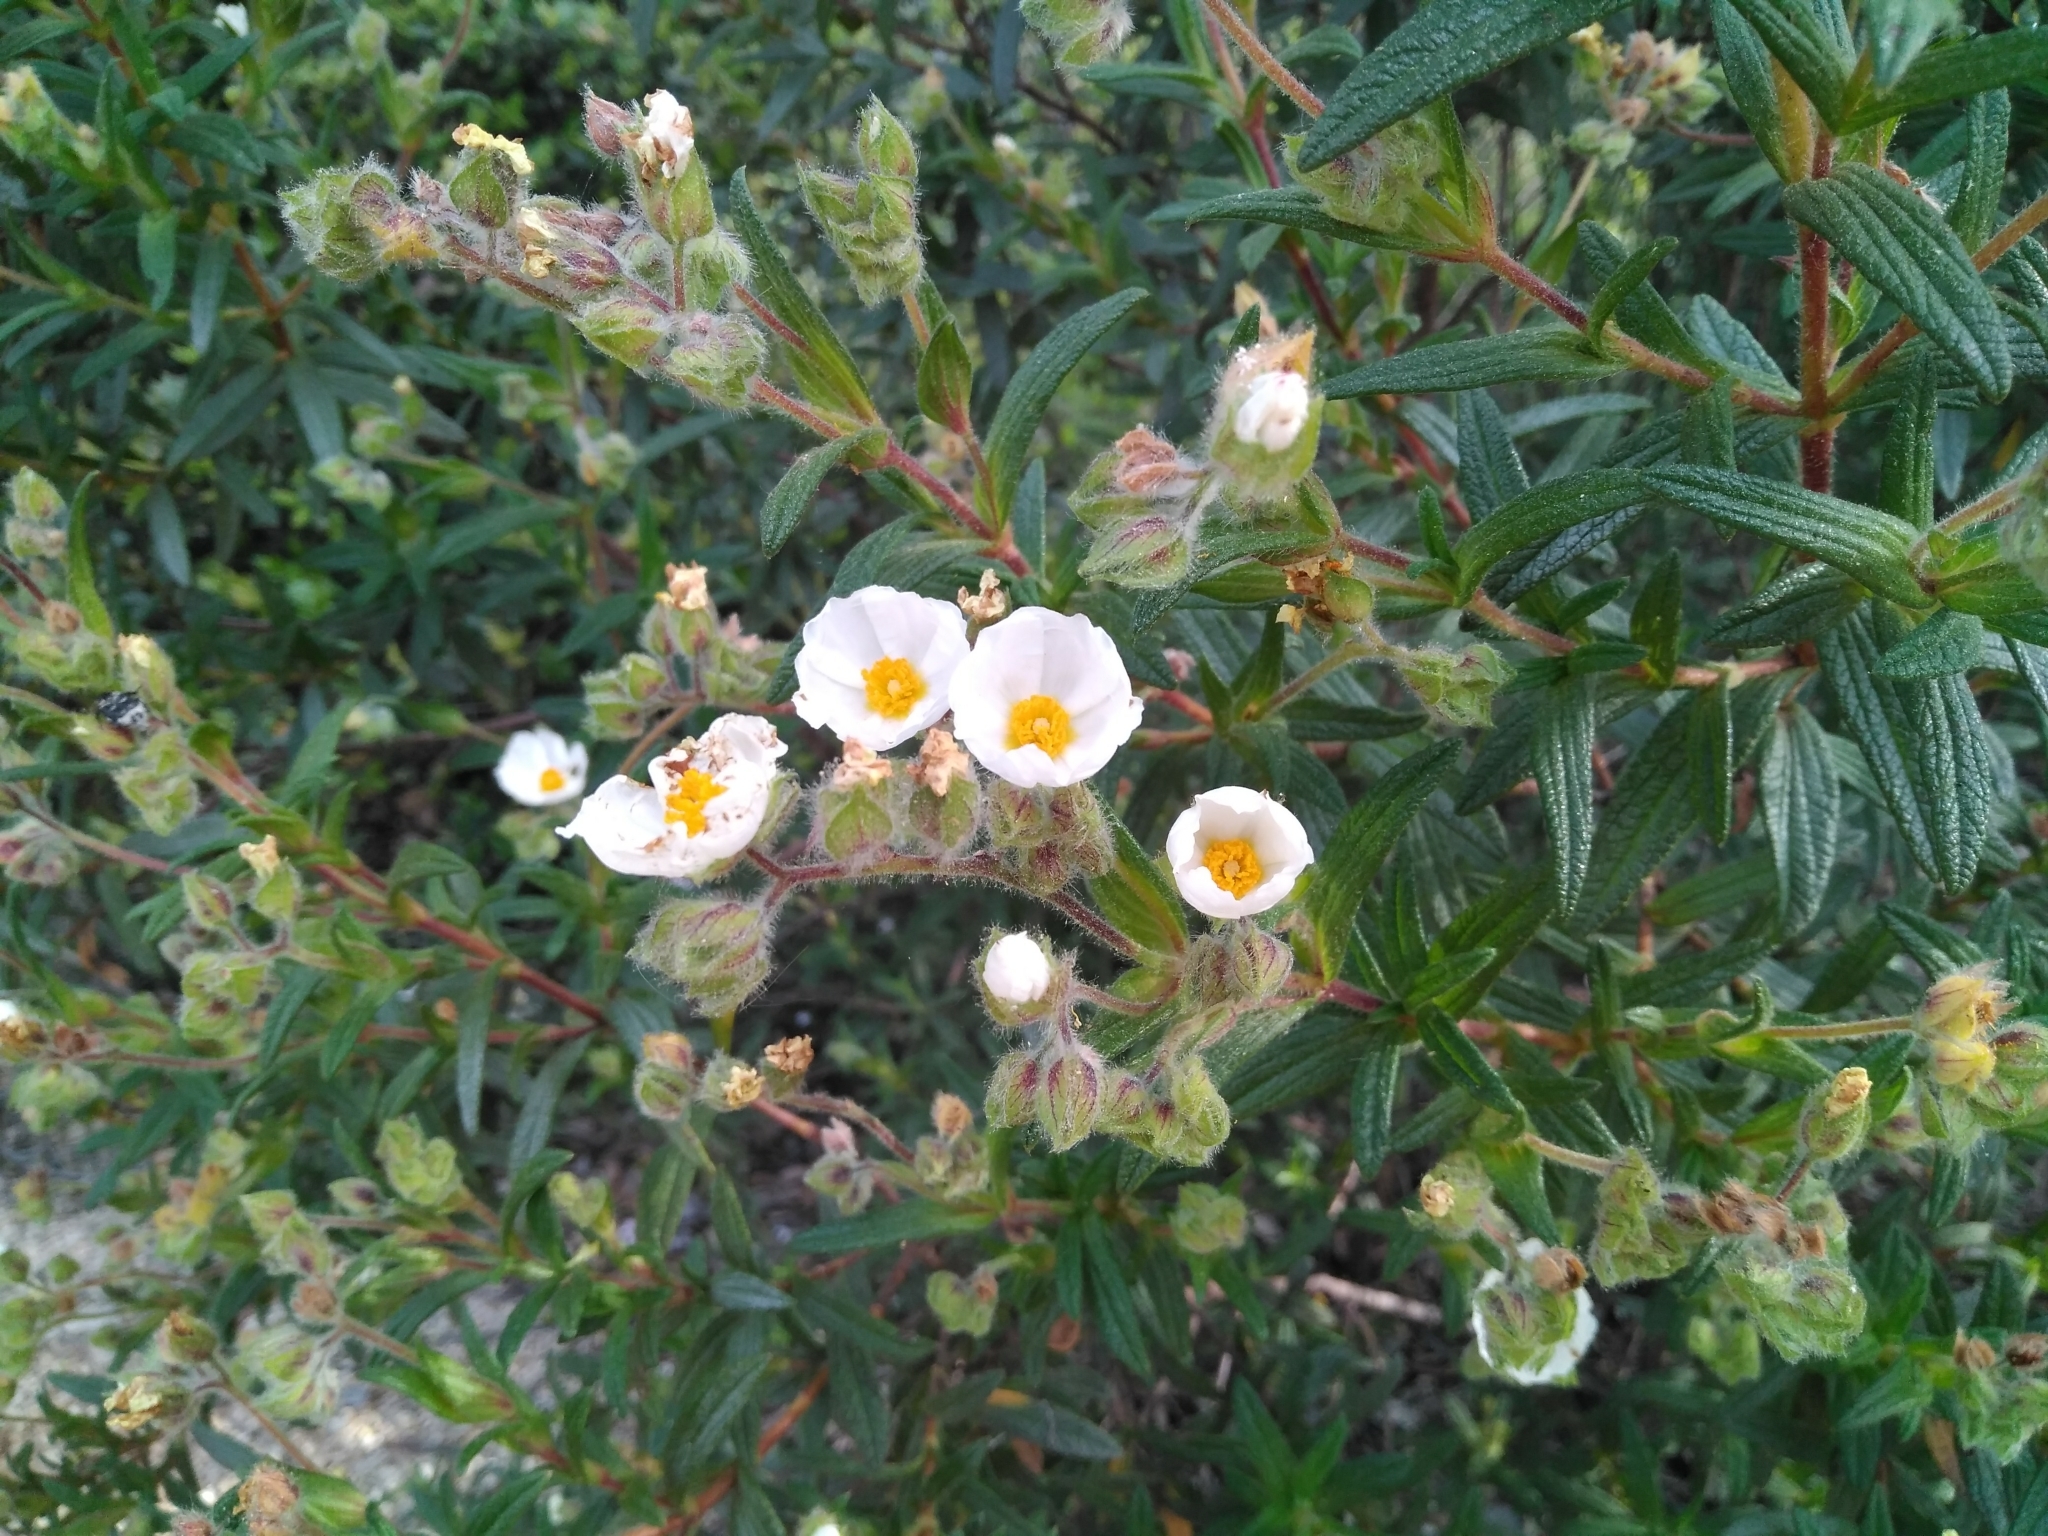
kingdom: Plantae
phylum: Tracheophyta
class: Magnoliopsida
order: Malvales
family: Cistaceae
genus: Cistus
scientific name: Cistus monspeliensis
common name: Montpelier cistus
